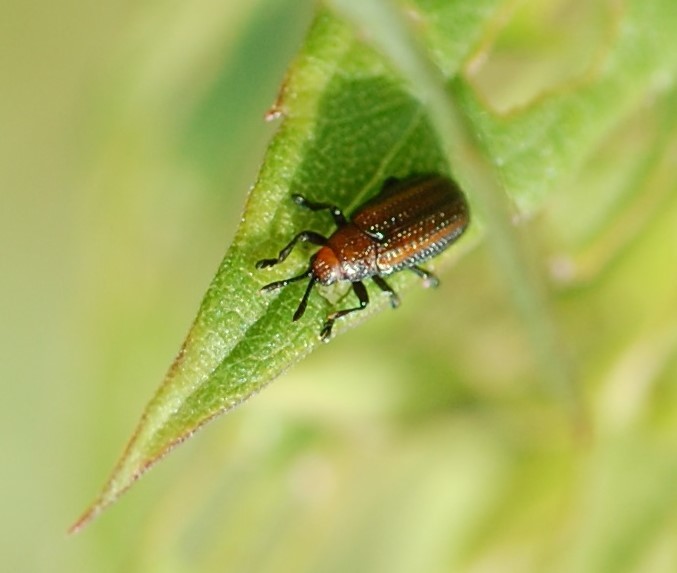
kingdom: Animalia
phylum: Arthropoda
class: Insecta
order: Coleoptera
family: Chrysomelidae
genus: Microrhopala
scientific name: Microrhopala vittata
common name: Goldenrod leaf miner beetle
